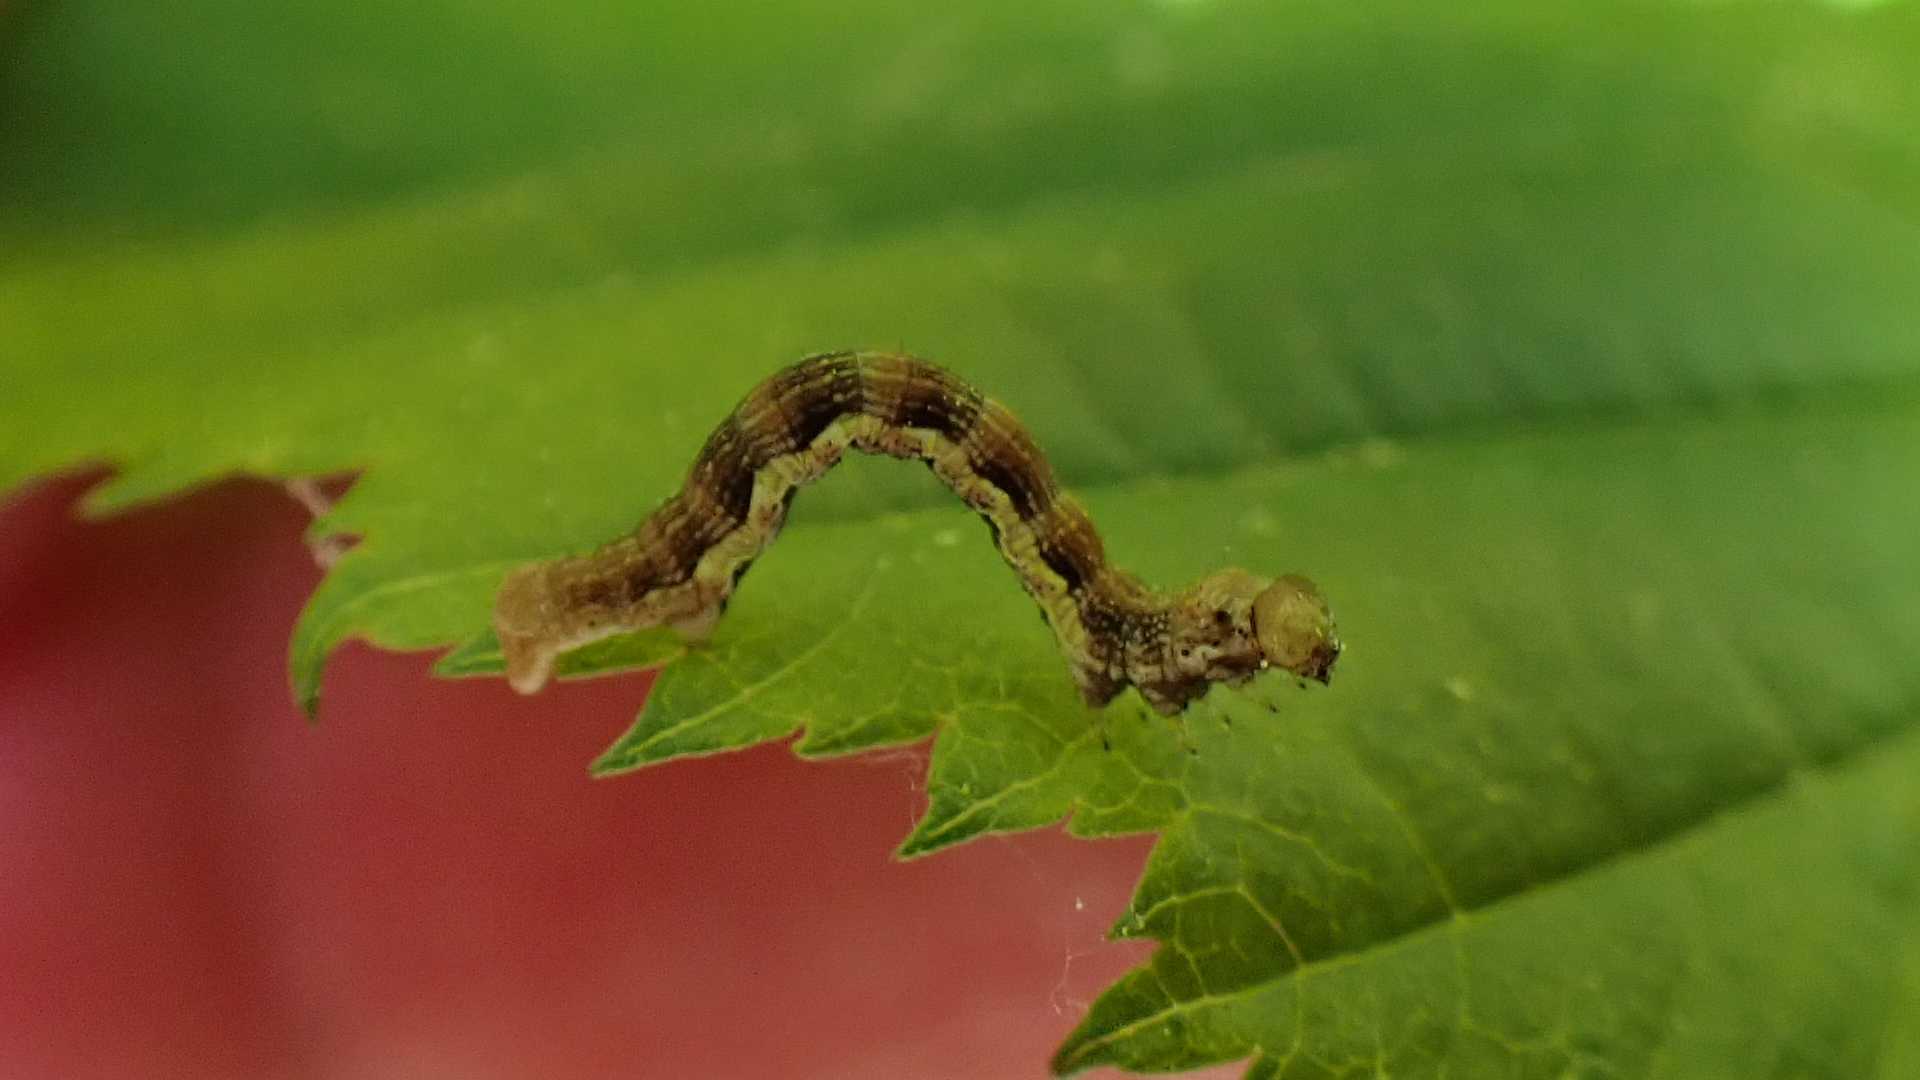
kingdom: Animalia
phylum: Arthropoda
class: Insecta
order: Lepidoptera
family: Geometridae
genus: Erannis
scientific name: Erannis defoliaria
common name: Mottled umber
